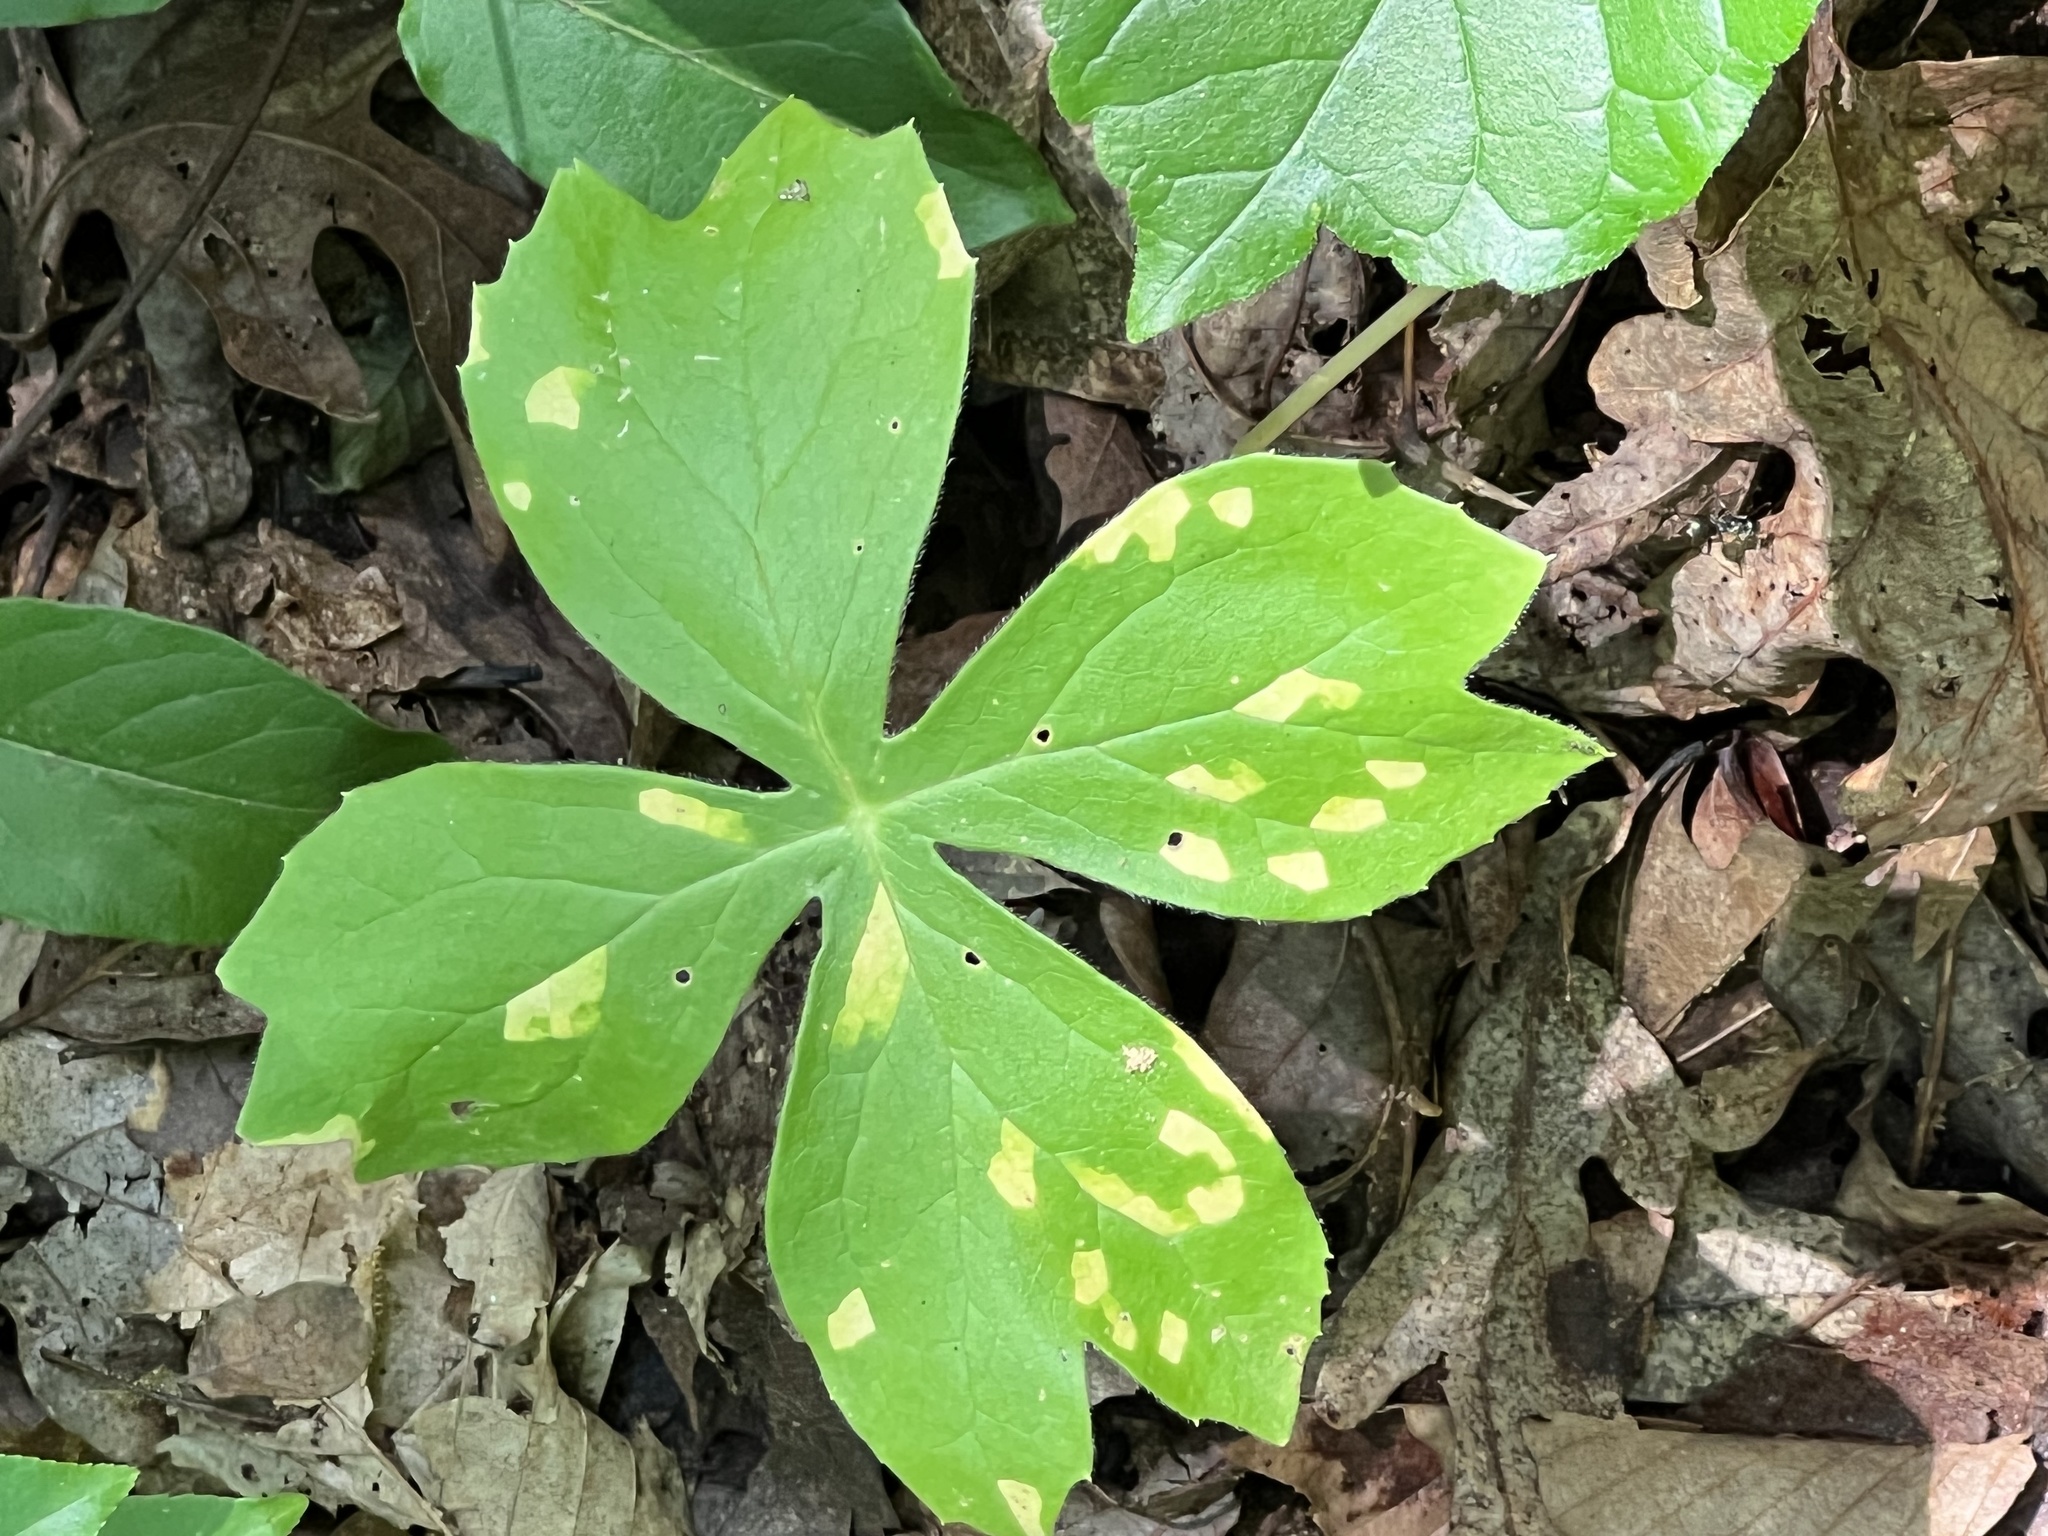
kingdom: Fungi
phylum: Basidiomycota
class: Pucciniomycetes
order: Pucciniales
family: Pucciniaceae
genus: Puccinia
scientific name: Puccinia podophylli
